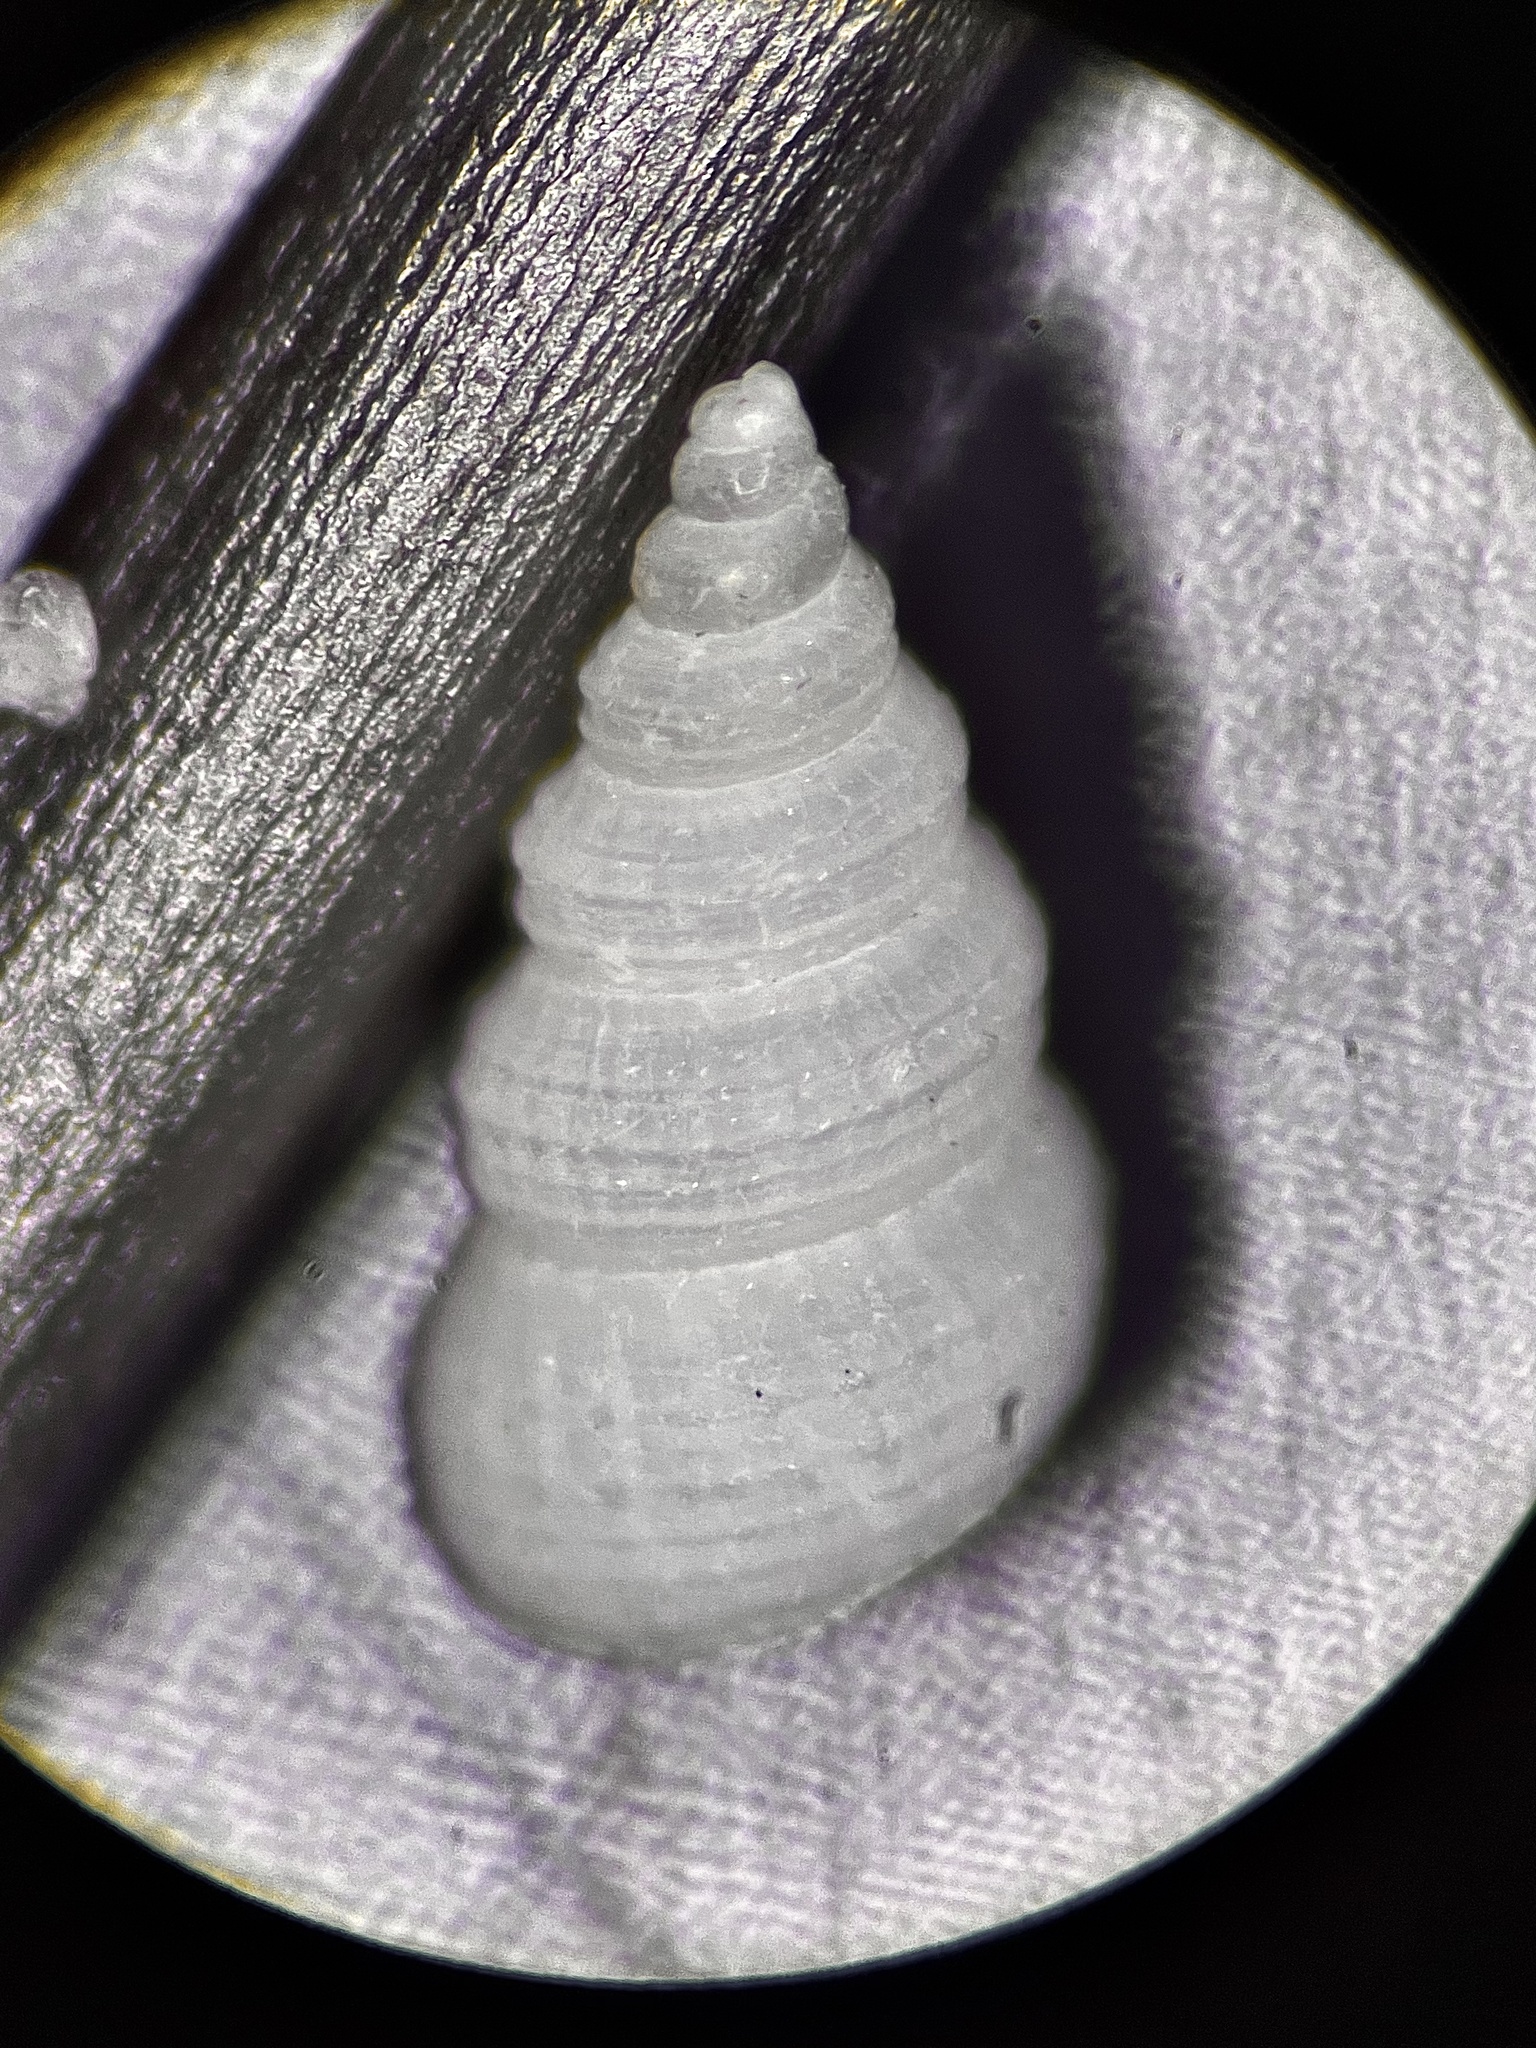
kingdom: Animalia
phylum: Mollusca
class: Gastropoda
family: Scaliolidae
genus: Finella
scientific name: Finella dubia
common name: Dubious finella
